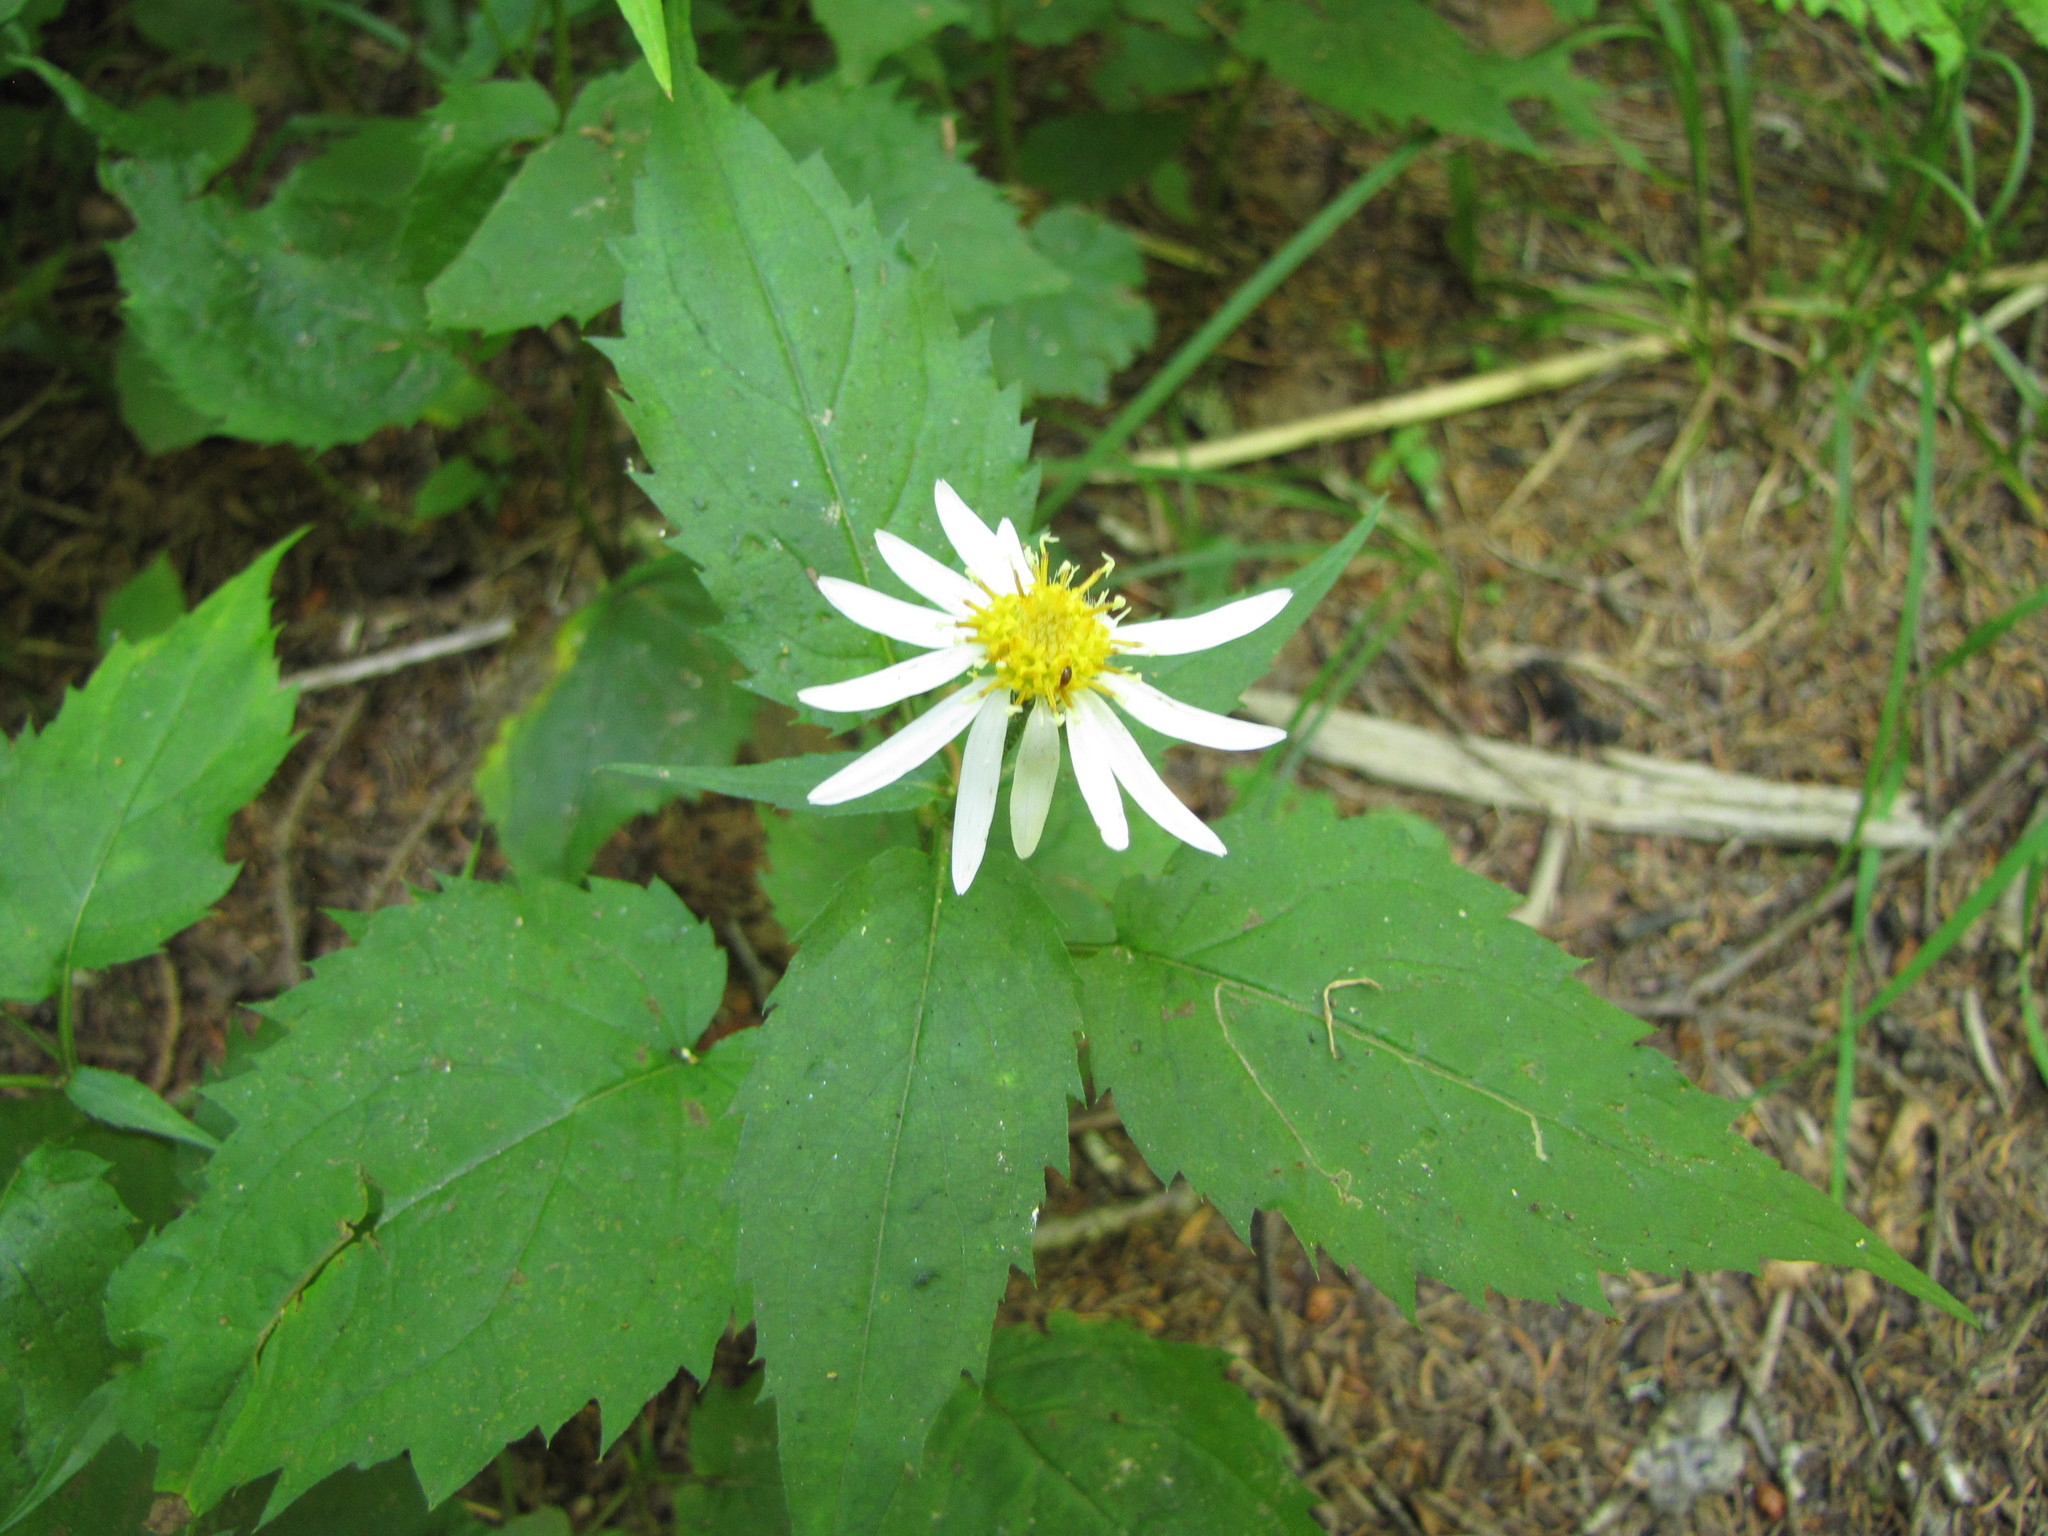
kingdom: Plantae
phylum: Tracheophyta
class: Magnoliopsida
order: Asterales
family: Asteraceae
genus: Eurybia
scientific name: Eurybia chlorolepis
